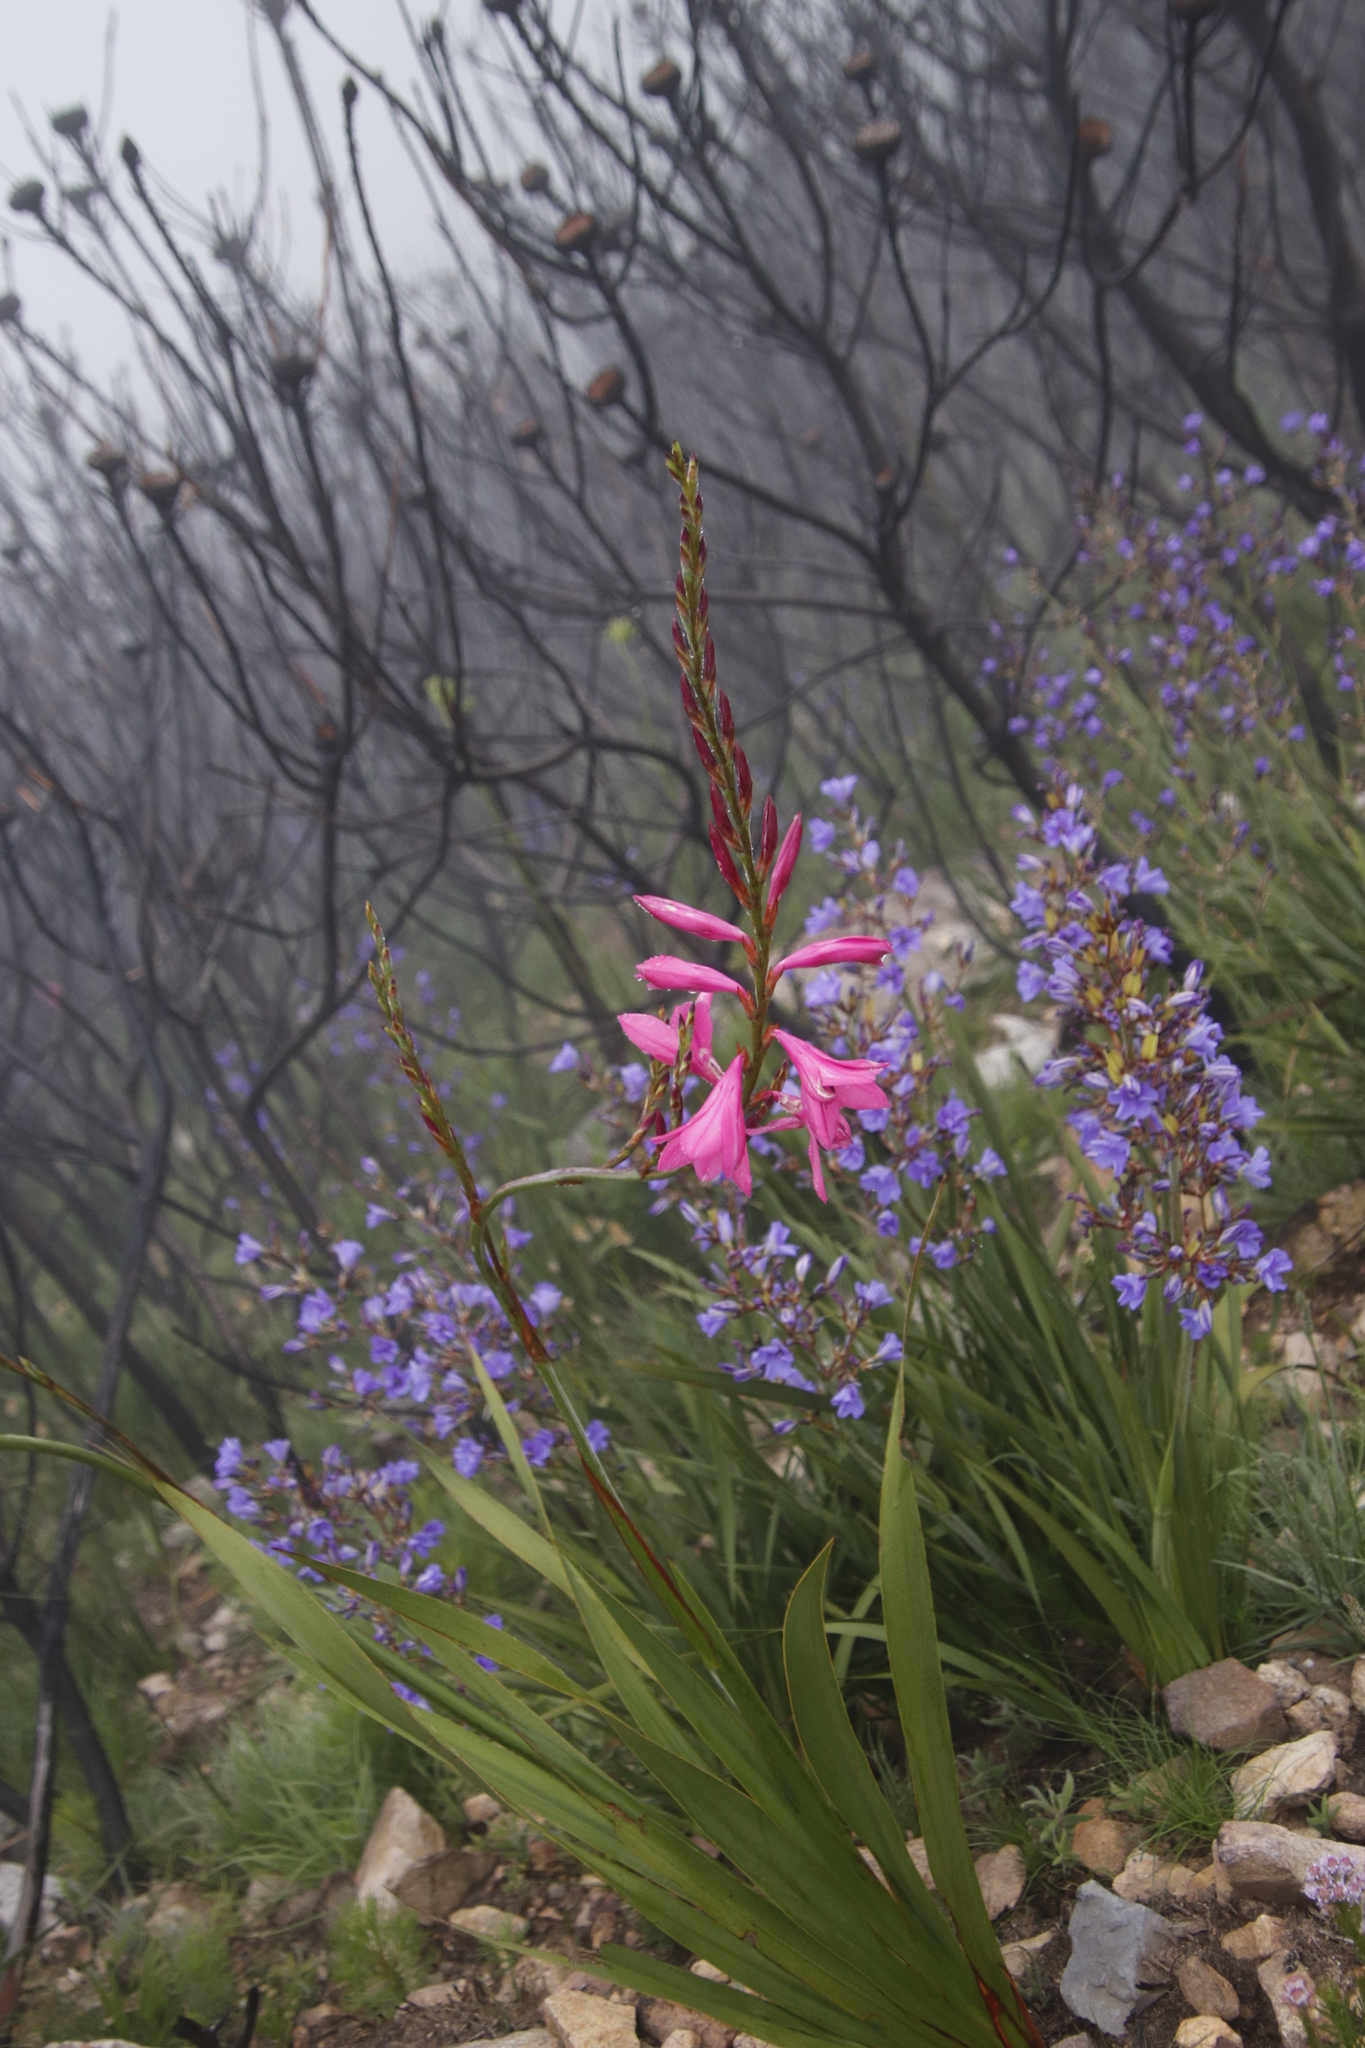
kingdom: Plantae
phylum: Tracheophyta
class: Liliopsida
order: Asparagales
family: Iridaceae
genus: Watsonia
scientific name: Watsonia borbonica
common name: Bugle-lily
